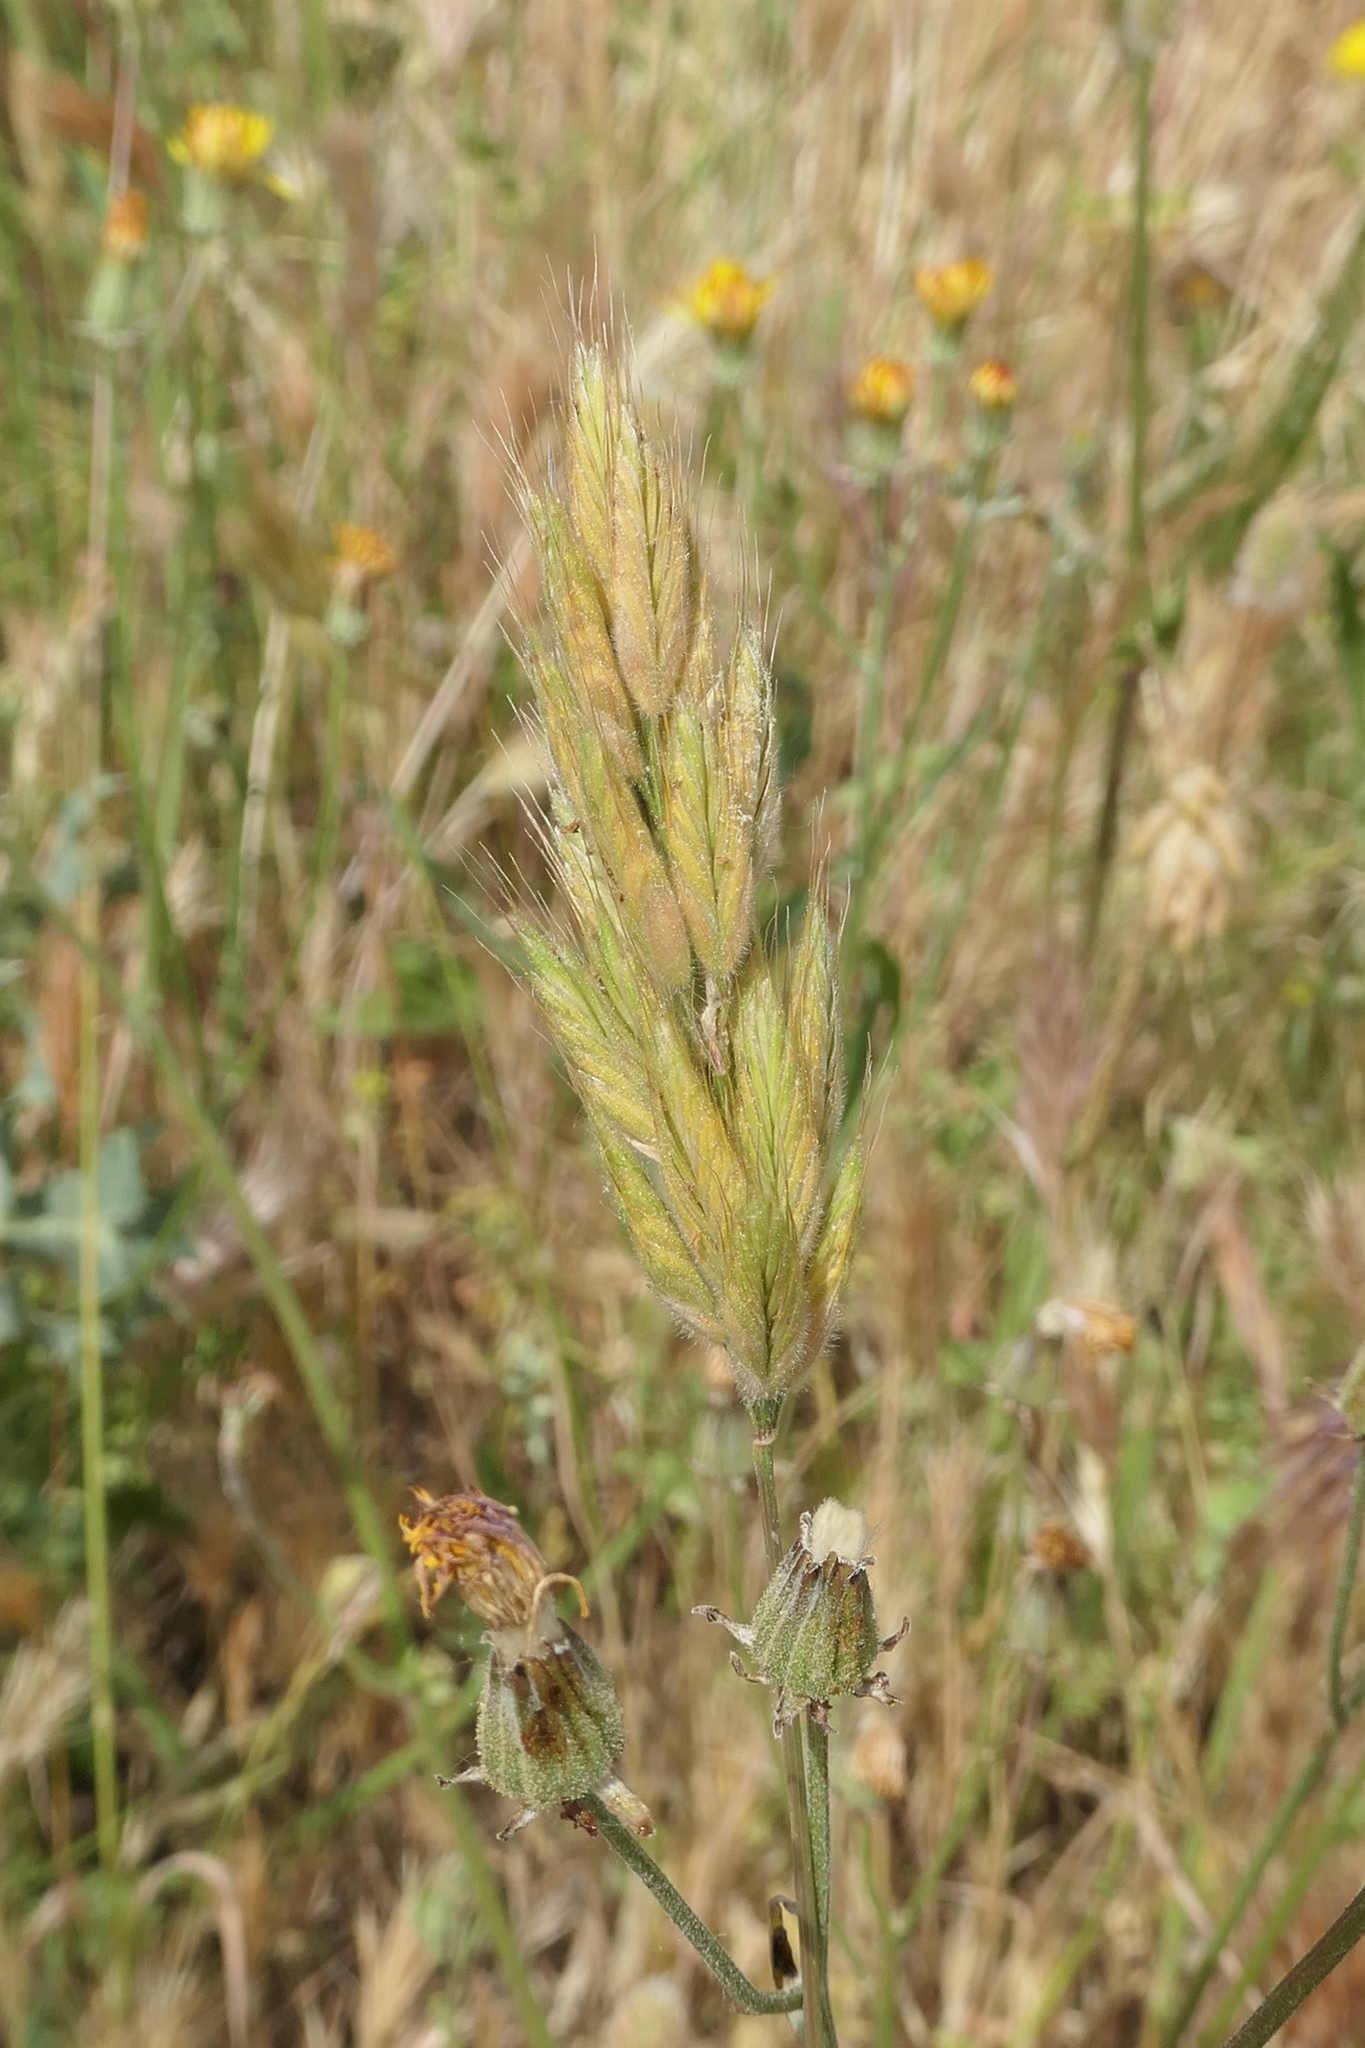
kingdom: Plantae
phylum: Tracheophyta
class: Liliopsida
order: Poales
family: Poaceae
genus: Bromus
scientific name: Bromus hordeaceus
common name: Soft brome
